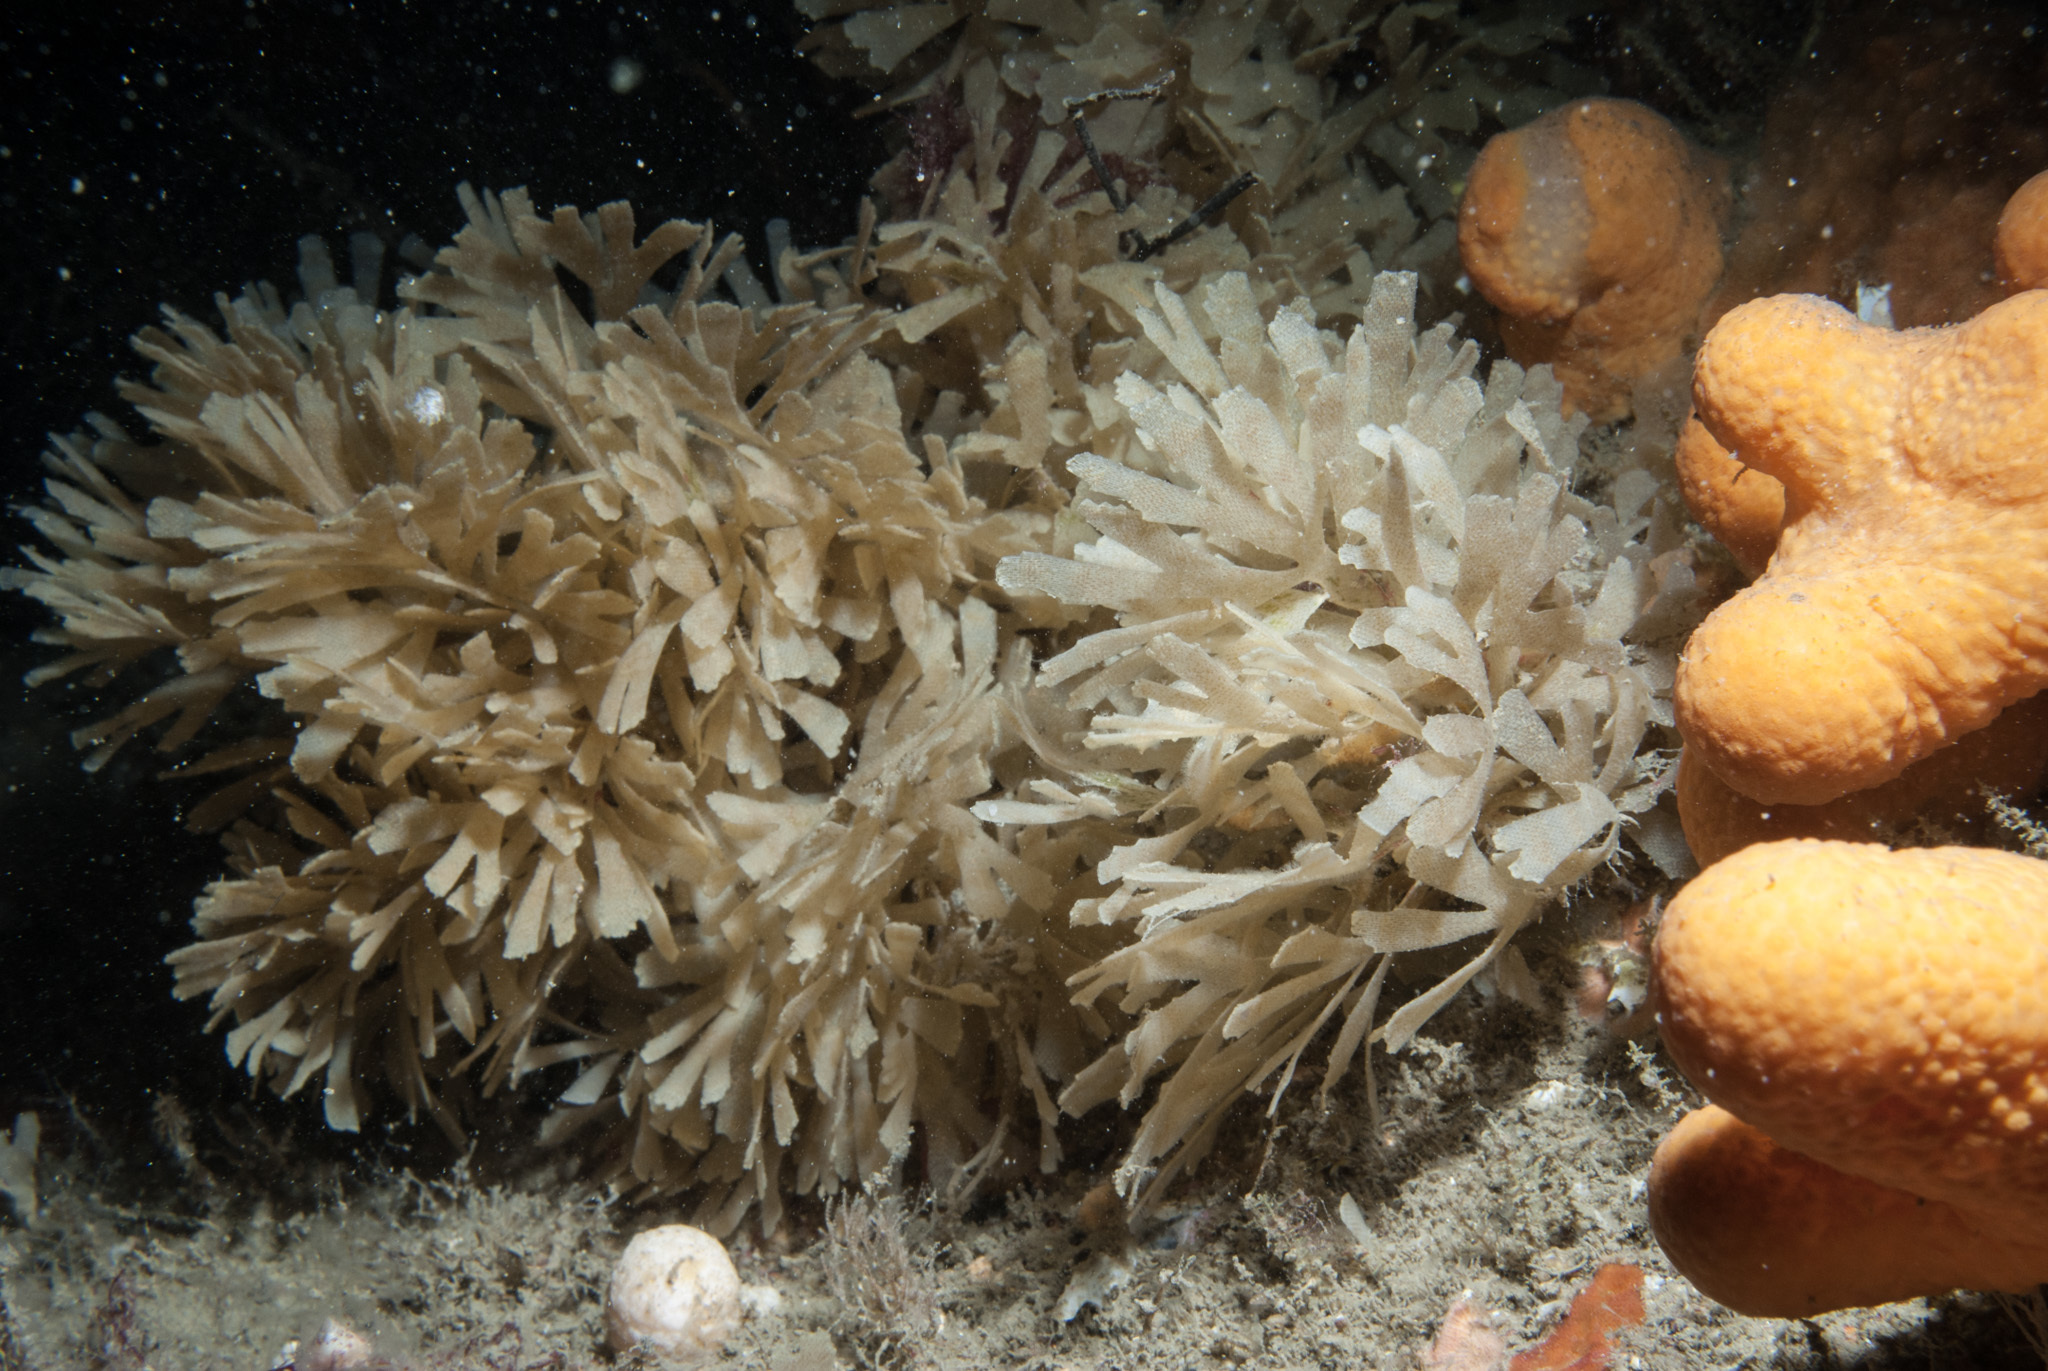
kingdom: Animalia
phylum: Bryozoa
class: Gymnolaemata
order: Cheilostomatida
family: Flustridae
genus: Securiflustra
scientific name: Securiflustra securifrons
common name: Narrow-leaved hornwrack
